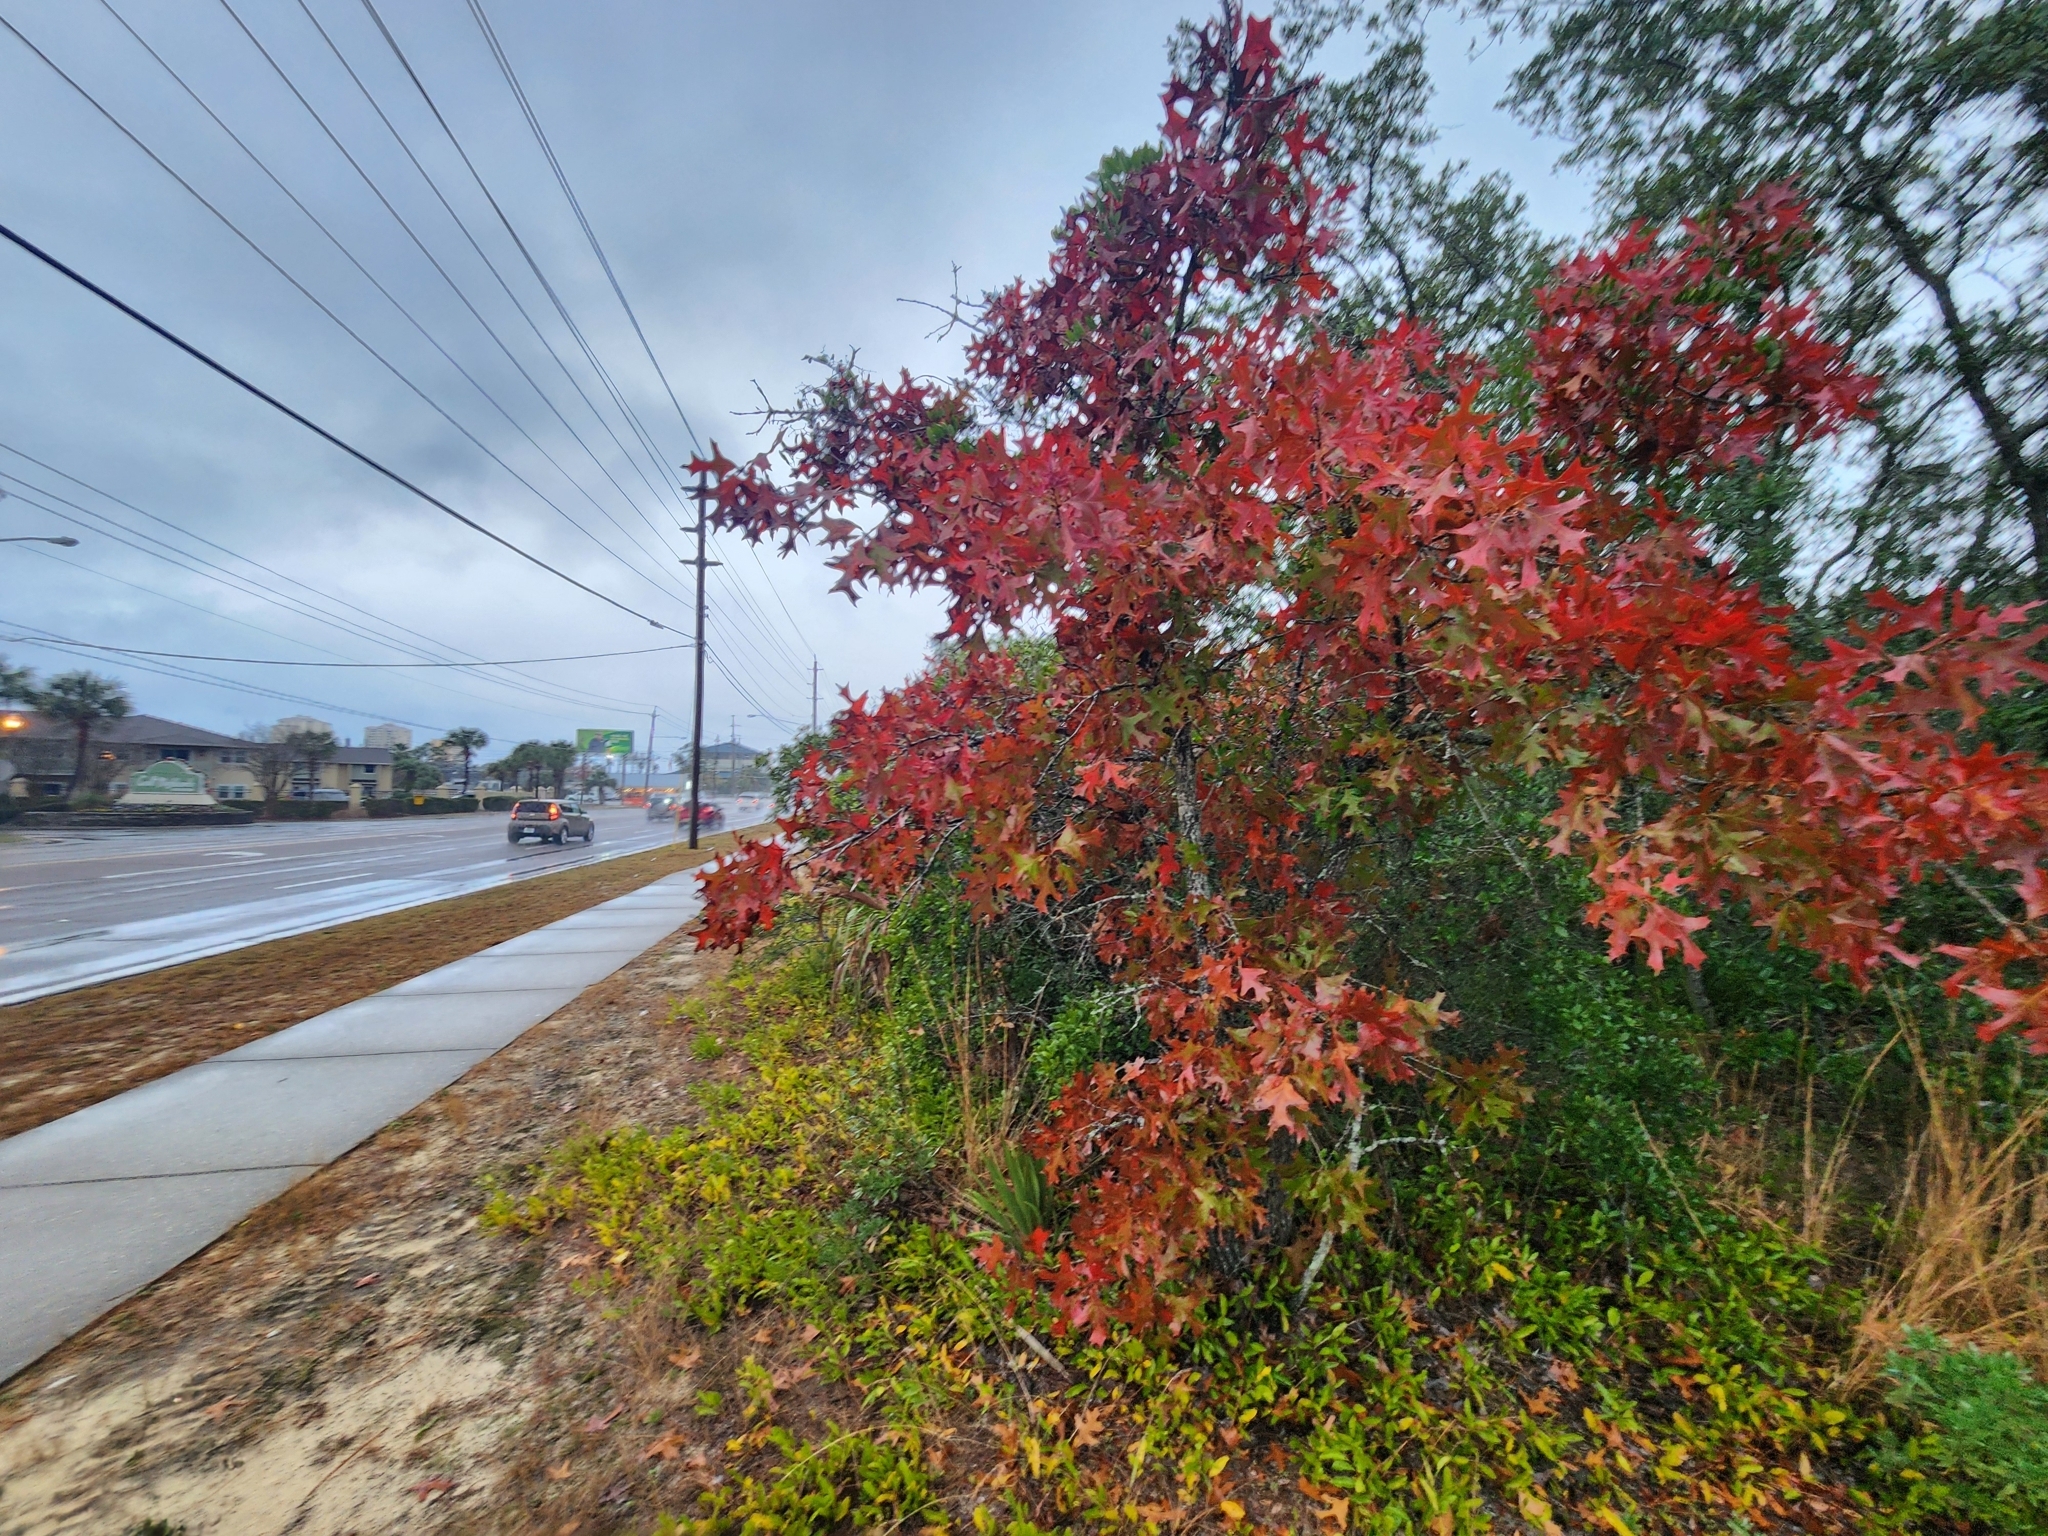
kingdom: Plantae
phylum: Tracheophyta
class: Magnoliopsida
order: Fagales
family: Fagaceae
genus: Quercus
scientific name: Quercus laevis
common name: Turkey oak
